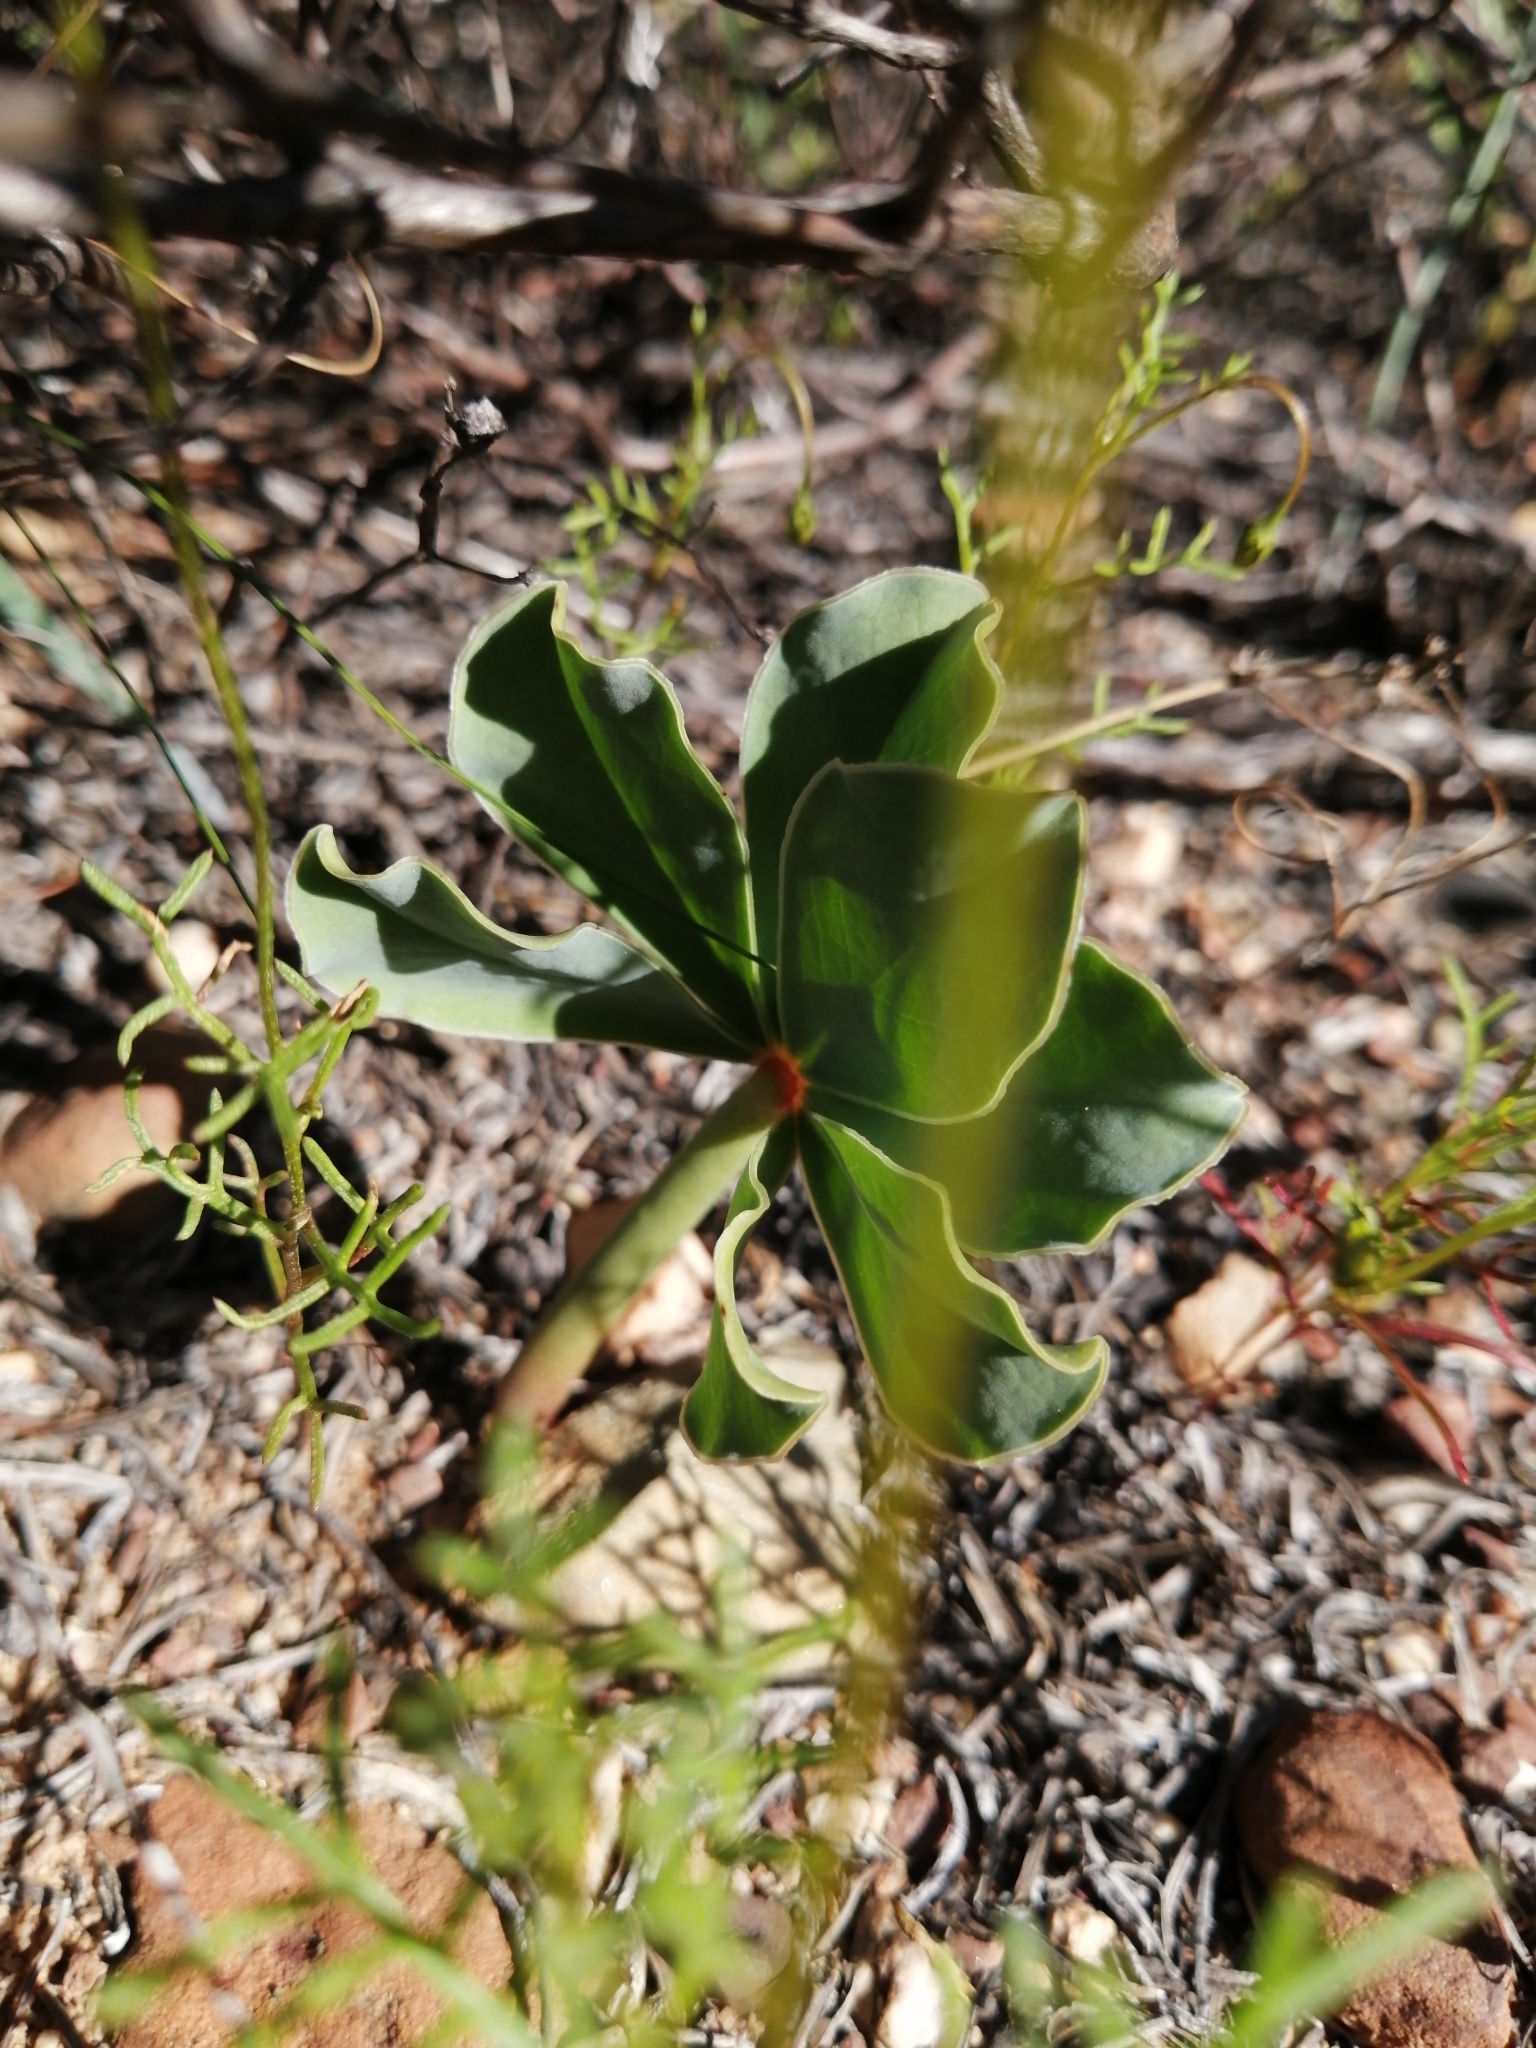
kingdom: Plantae
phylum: Tracheophyta
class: Magnoliopsida
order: Oxalidales
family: Oxalidaceae
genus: Oxalis
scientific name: Oxalis flava
